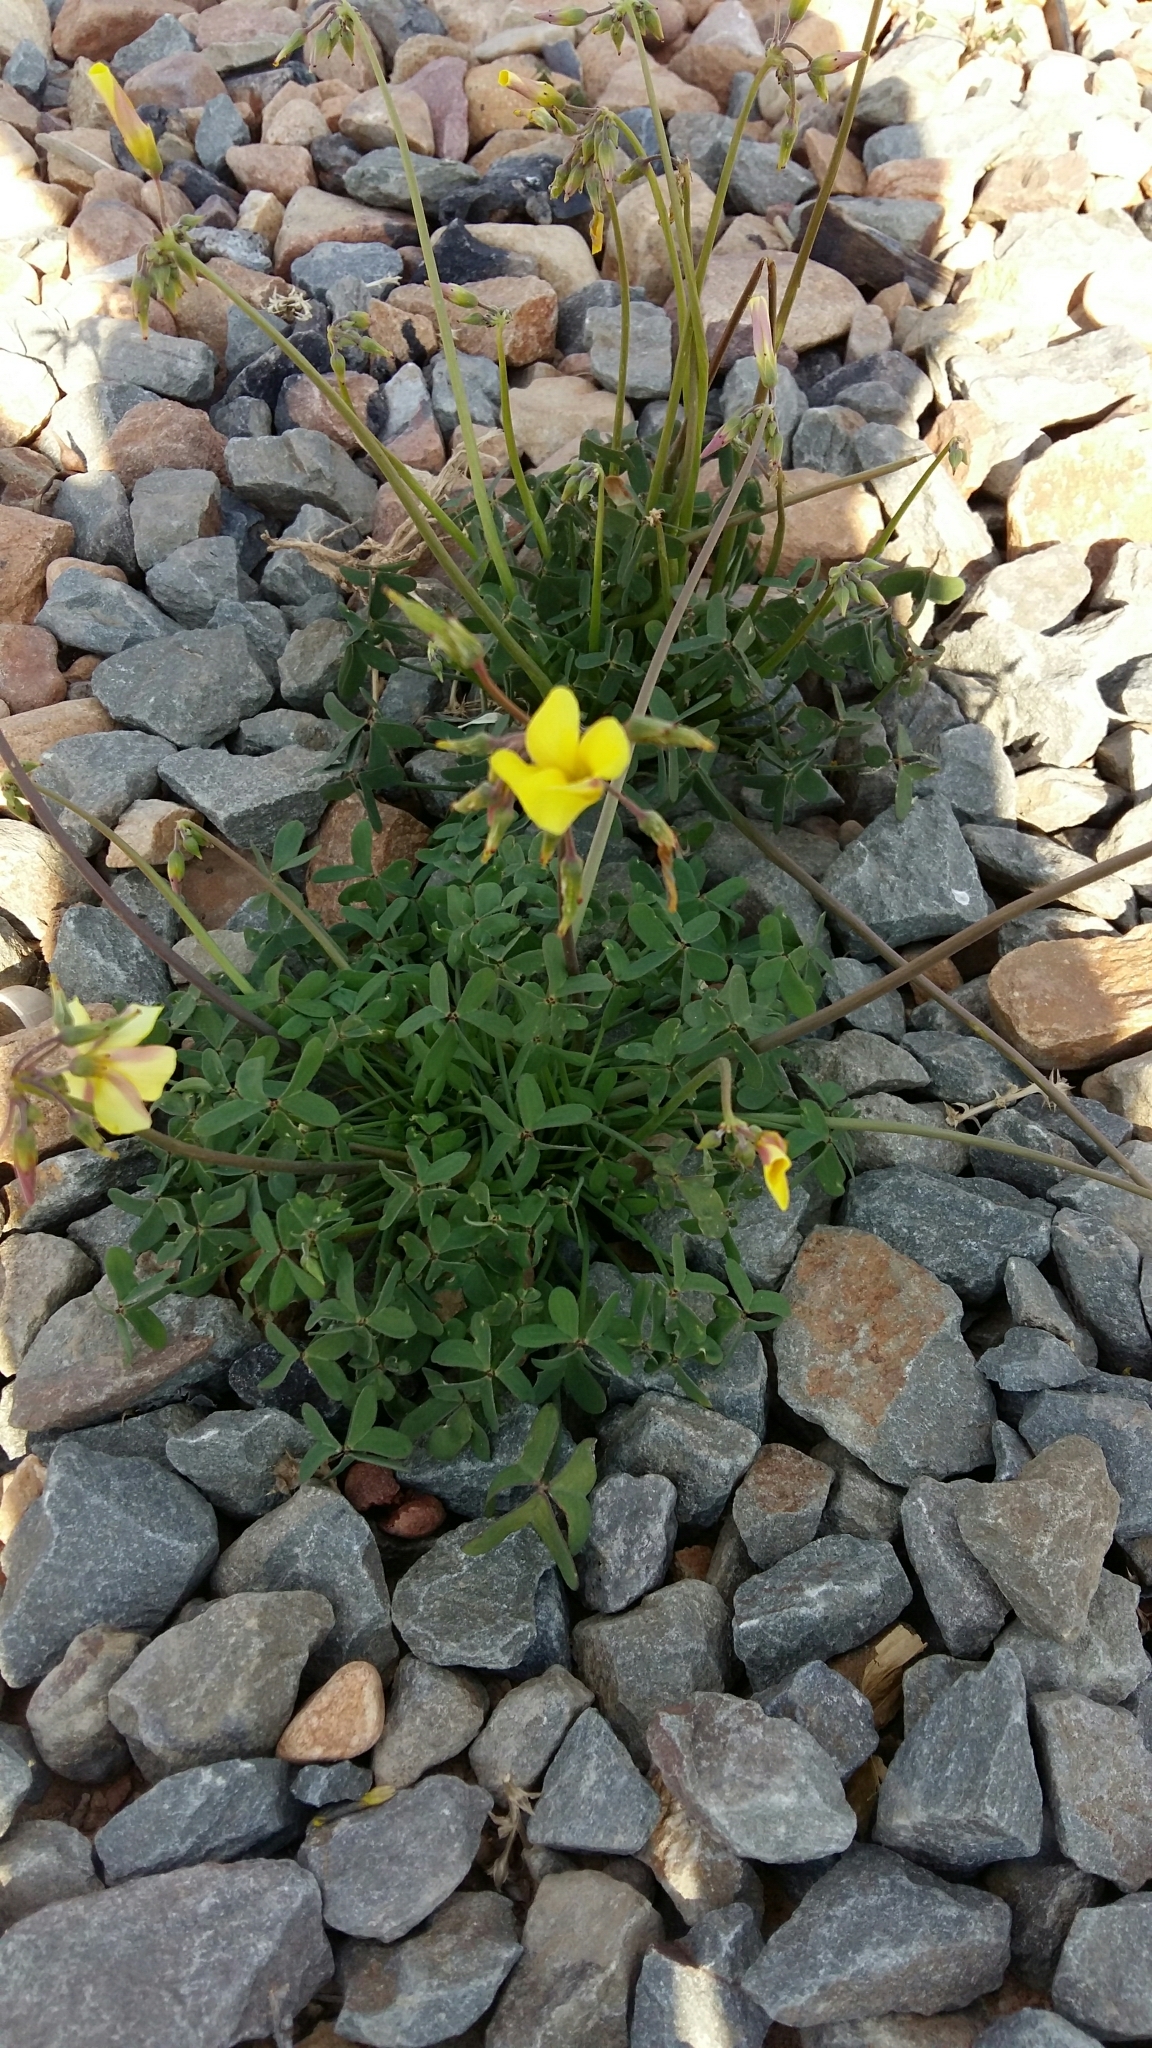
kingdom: Plantae
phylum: Tracheophyta
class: Magnoliopsida
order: Oxalidales
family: Oxalidaceae
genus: Oxalis
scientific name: Oxalis pes-caprae
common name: Bermuda-buttercup
